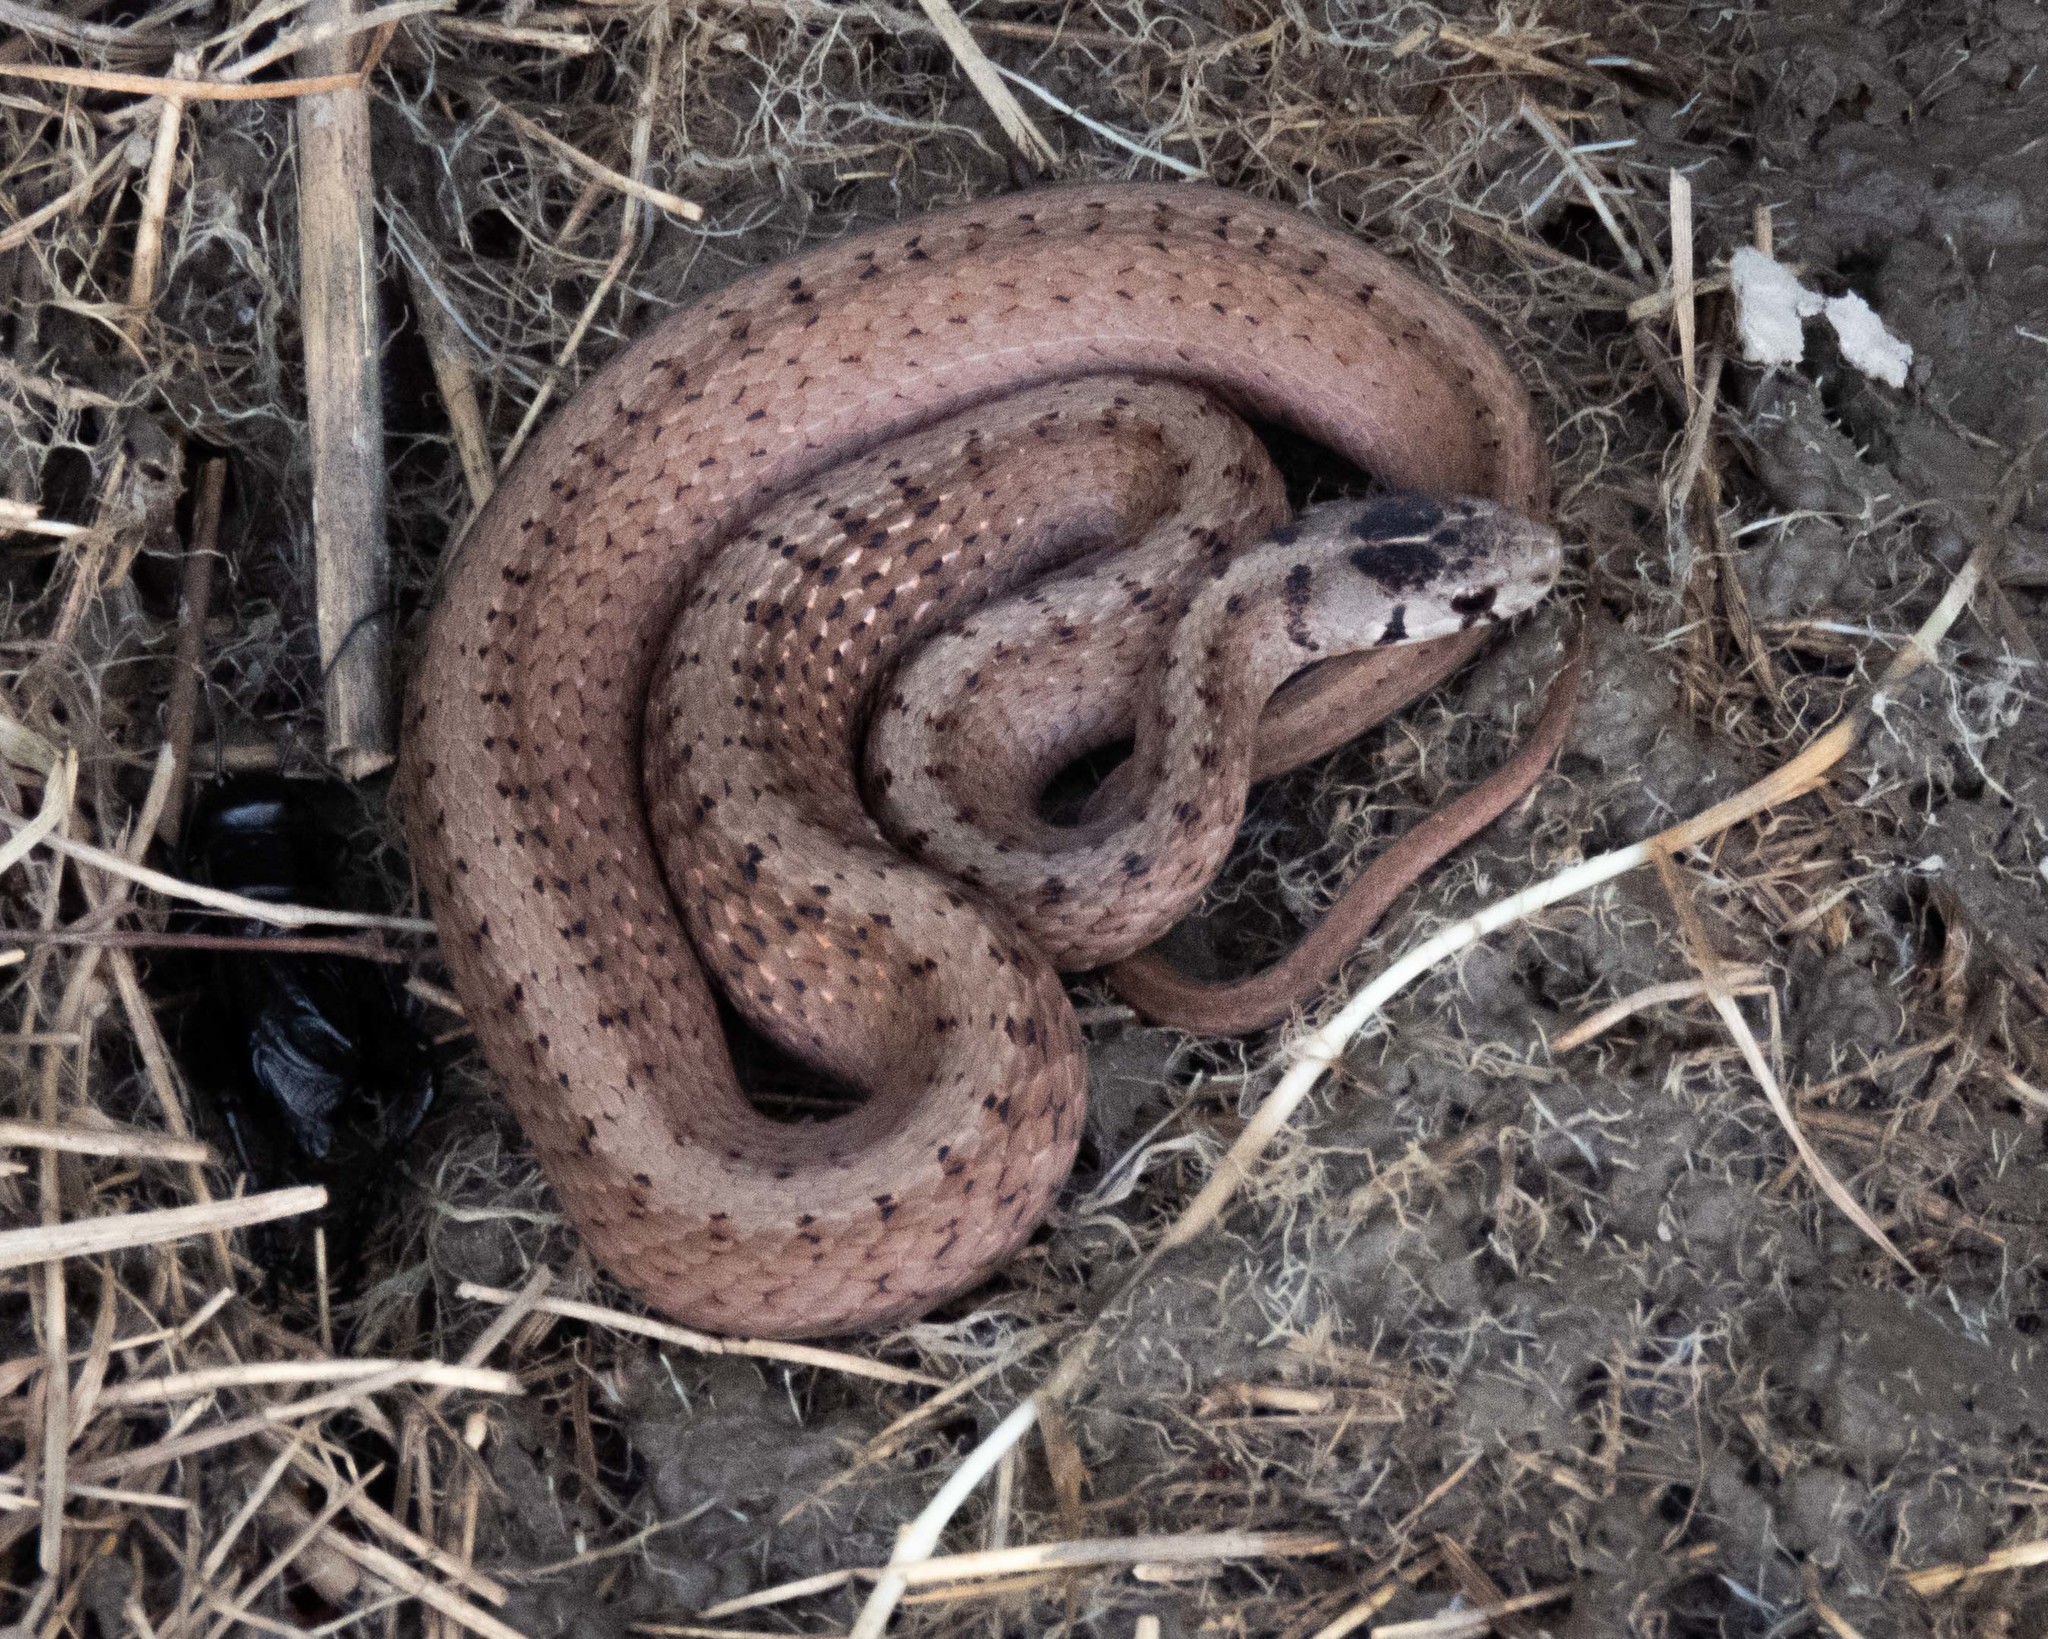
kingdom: Animalia
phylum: Chordata
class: Squamata
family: Colubridae
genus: Storeria
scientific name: Storeria dekayi
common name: (dekay’s) brown snake
